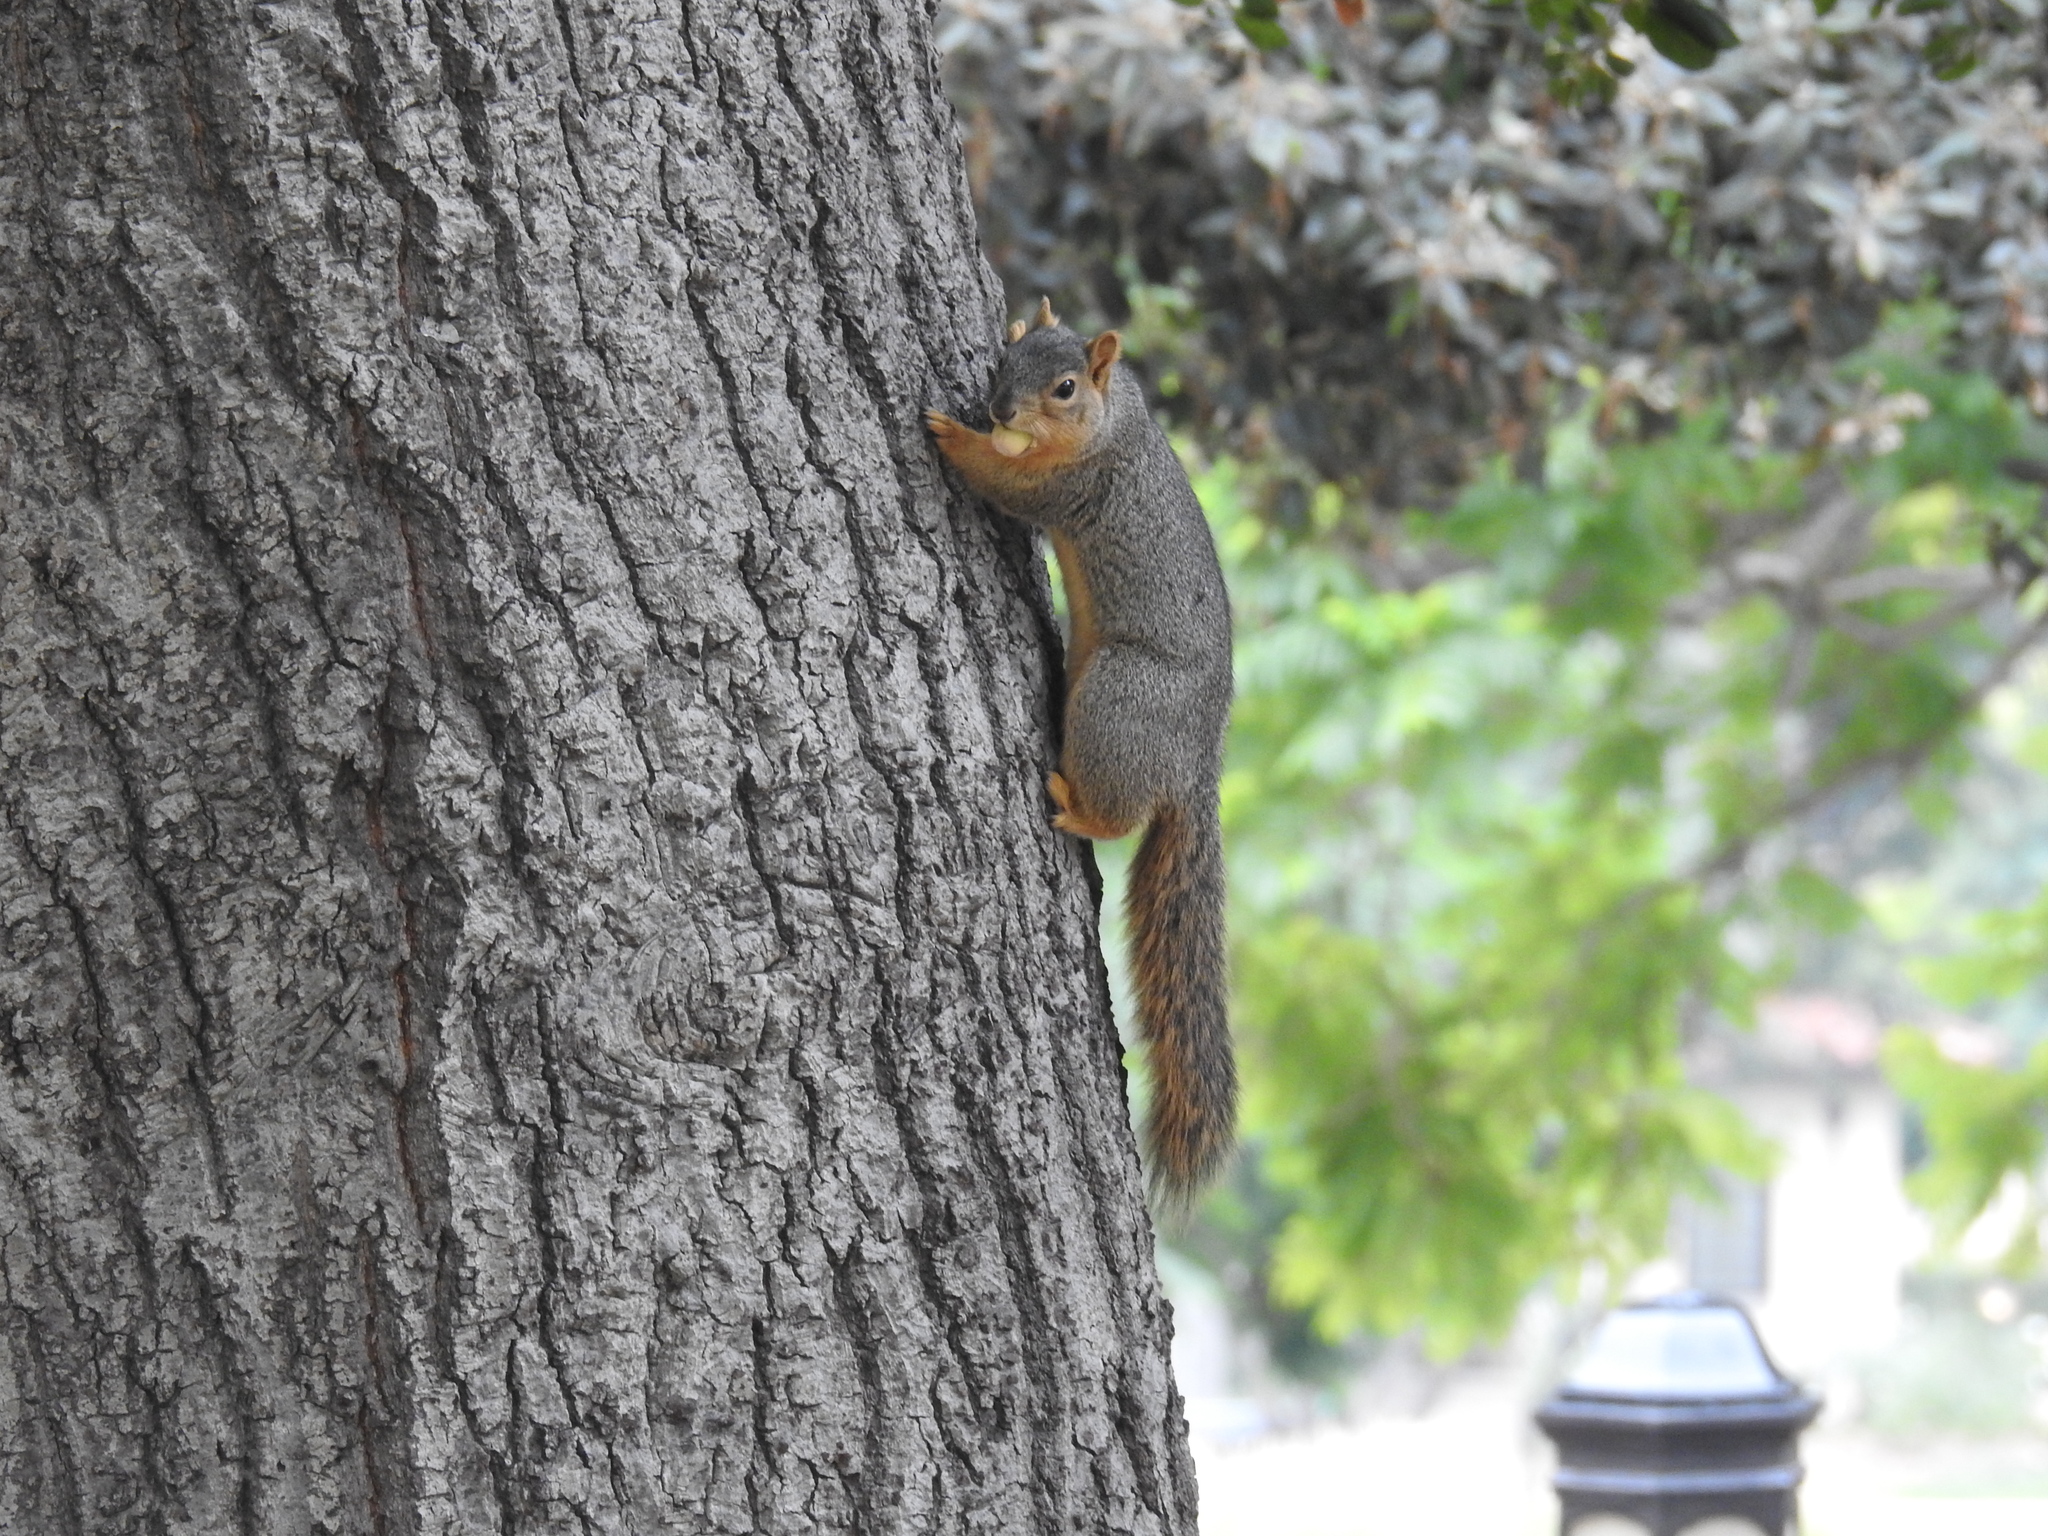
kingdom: Animalia
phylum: Chordata
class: Mammalia
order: Rodentia
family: Sciuridae
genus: Sciurus
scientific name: Sciurus niger
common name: Fox squirrel
